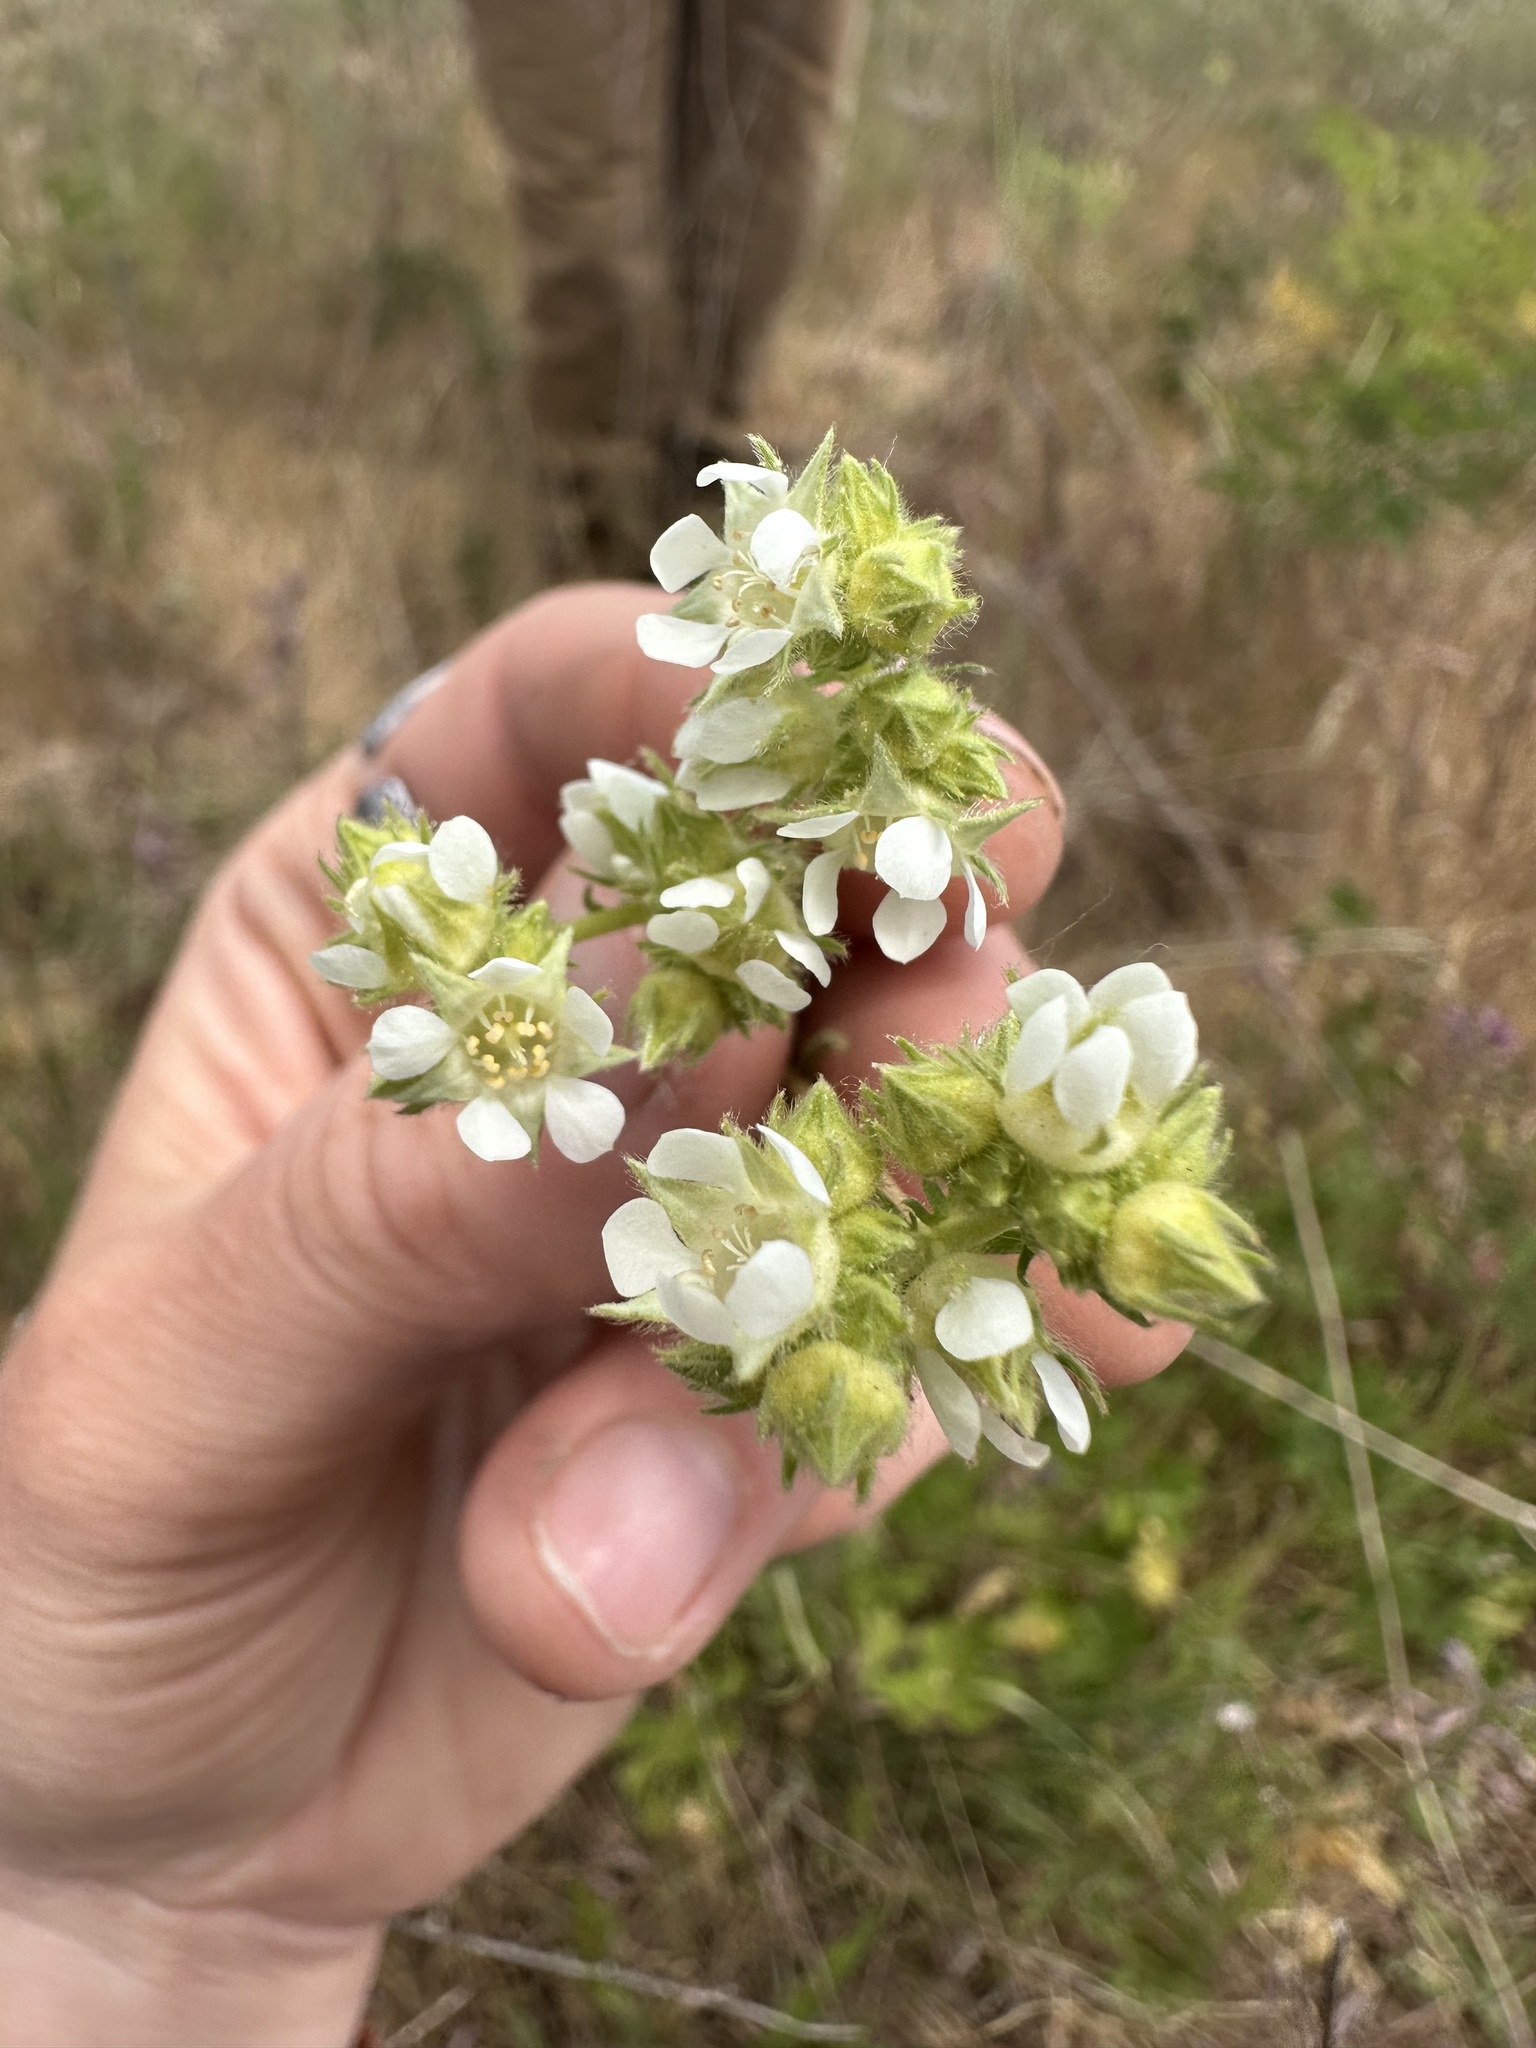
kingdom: Plantae
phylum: Tracheophyta
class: Magnoliopsida
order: Rosales
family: Rosaceae
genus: Potentilla
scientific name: Potentilla congesta
